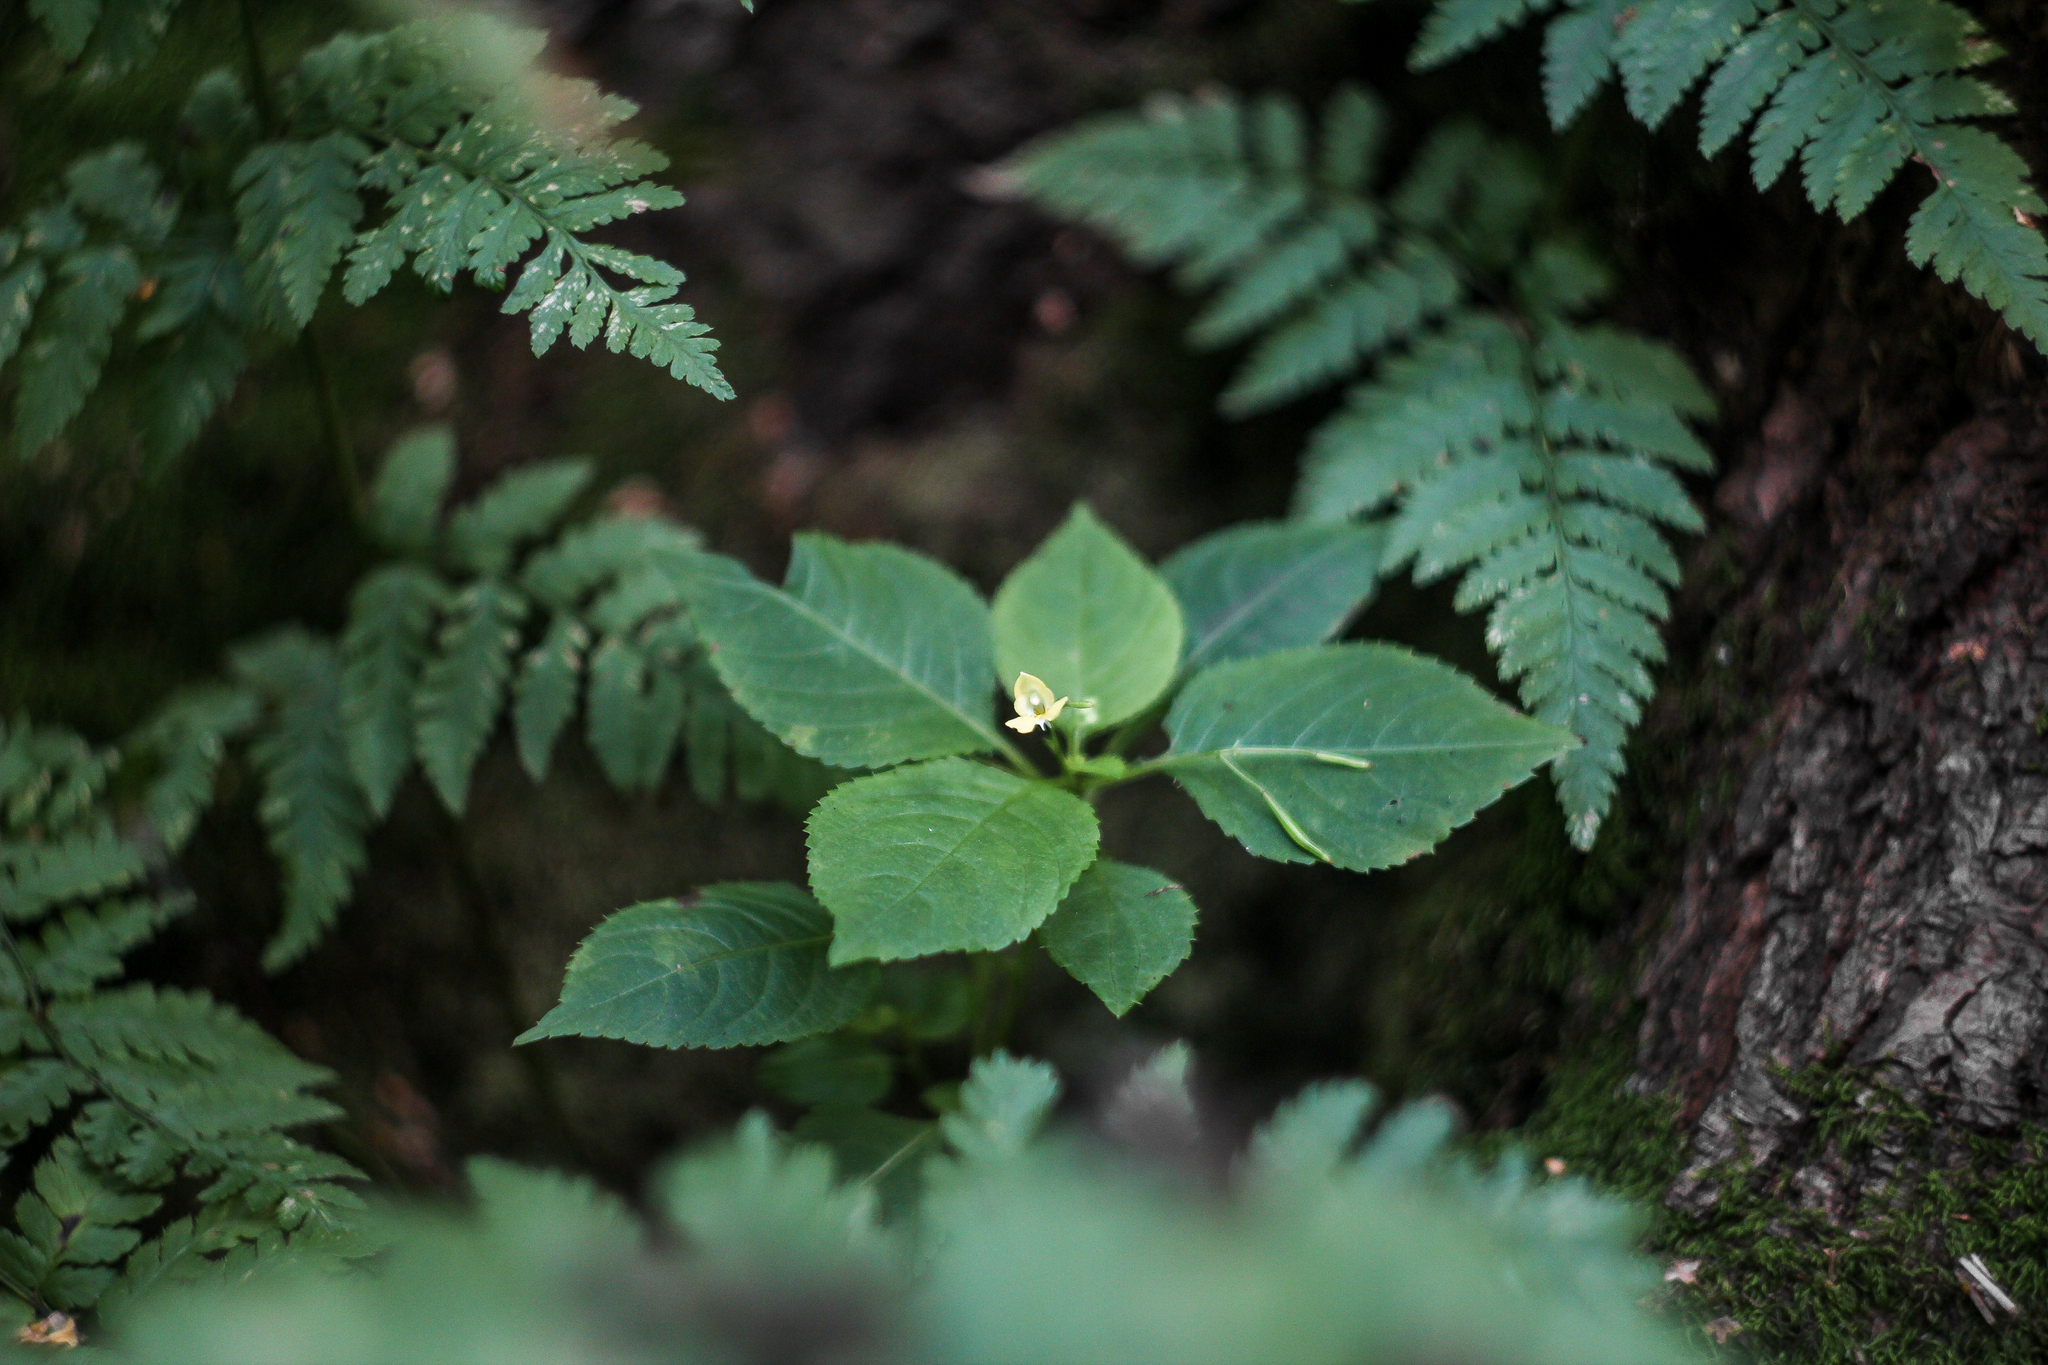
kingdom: Plantae
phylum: Tracheophyta
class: Magnoliopsida
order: Ericales
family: Balsaminaceae
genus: Impatiens
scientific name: Impatiens parviflora
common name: Small balsam
